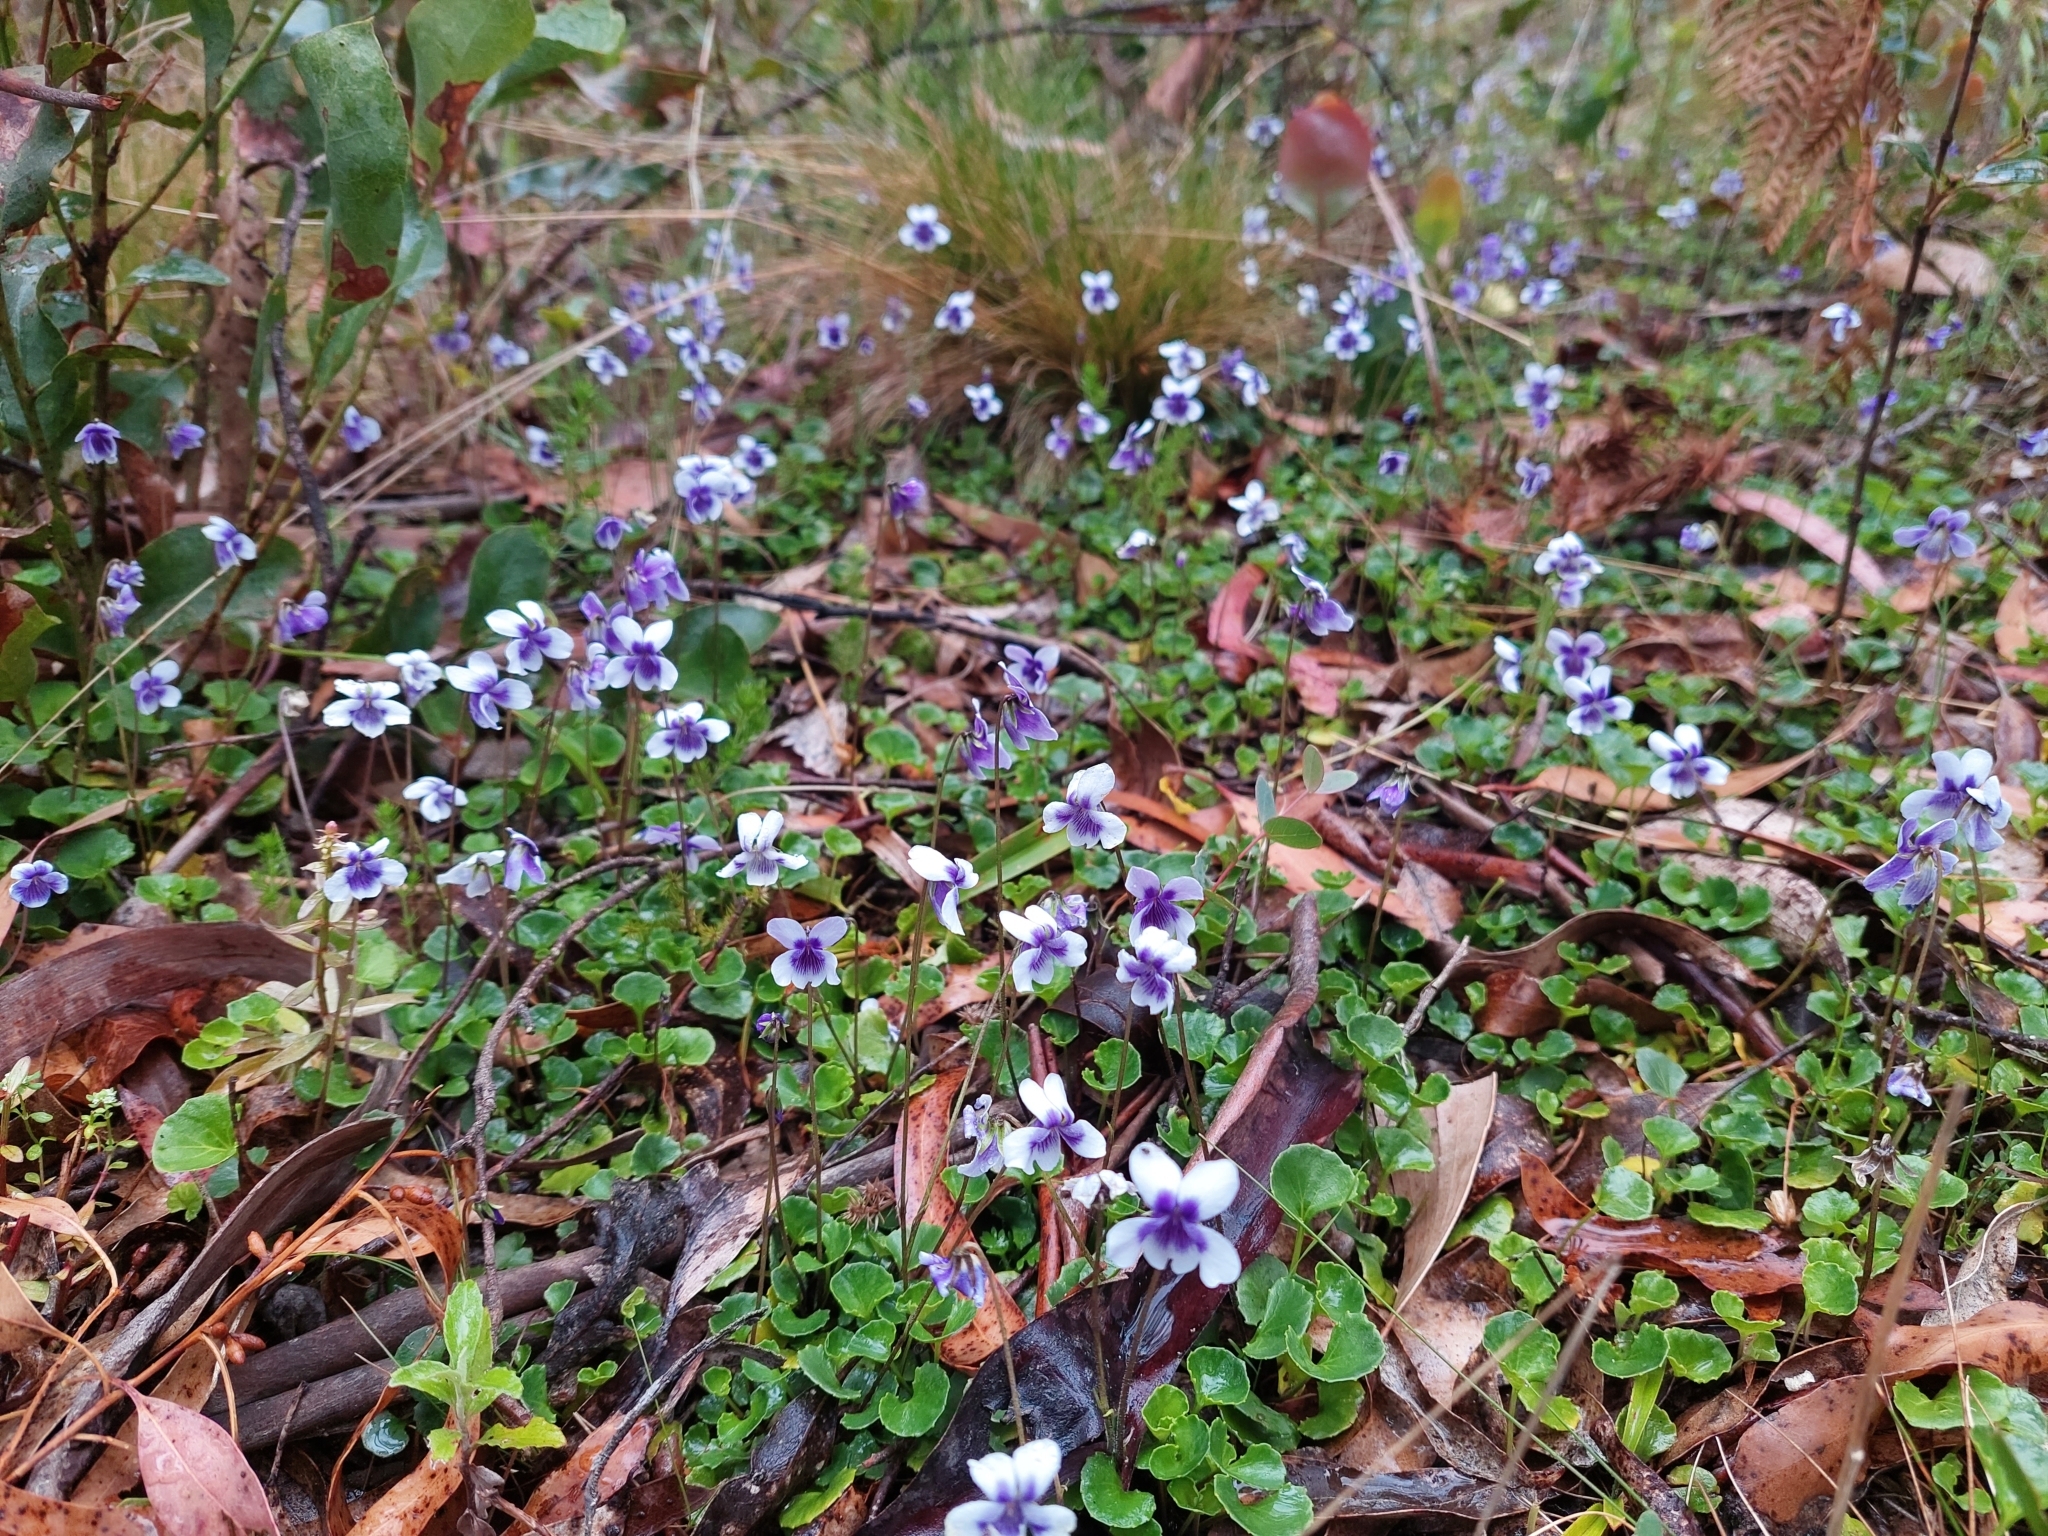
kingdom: Plantae
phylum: Tracheophyta
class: Magnoliopsida
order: Malpighiales
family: Violaceae
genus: Viola
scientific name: Viola hederacea
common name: Australian violet
